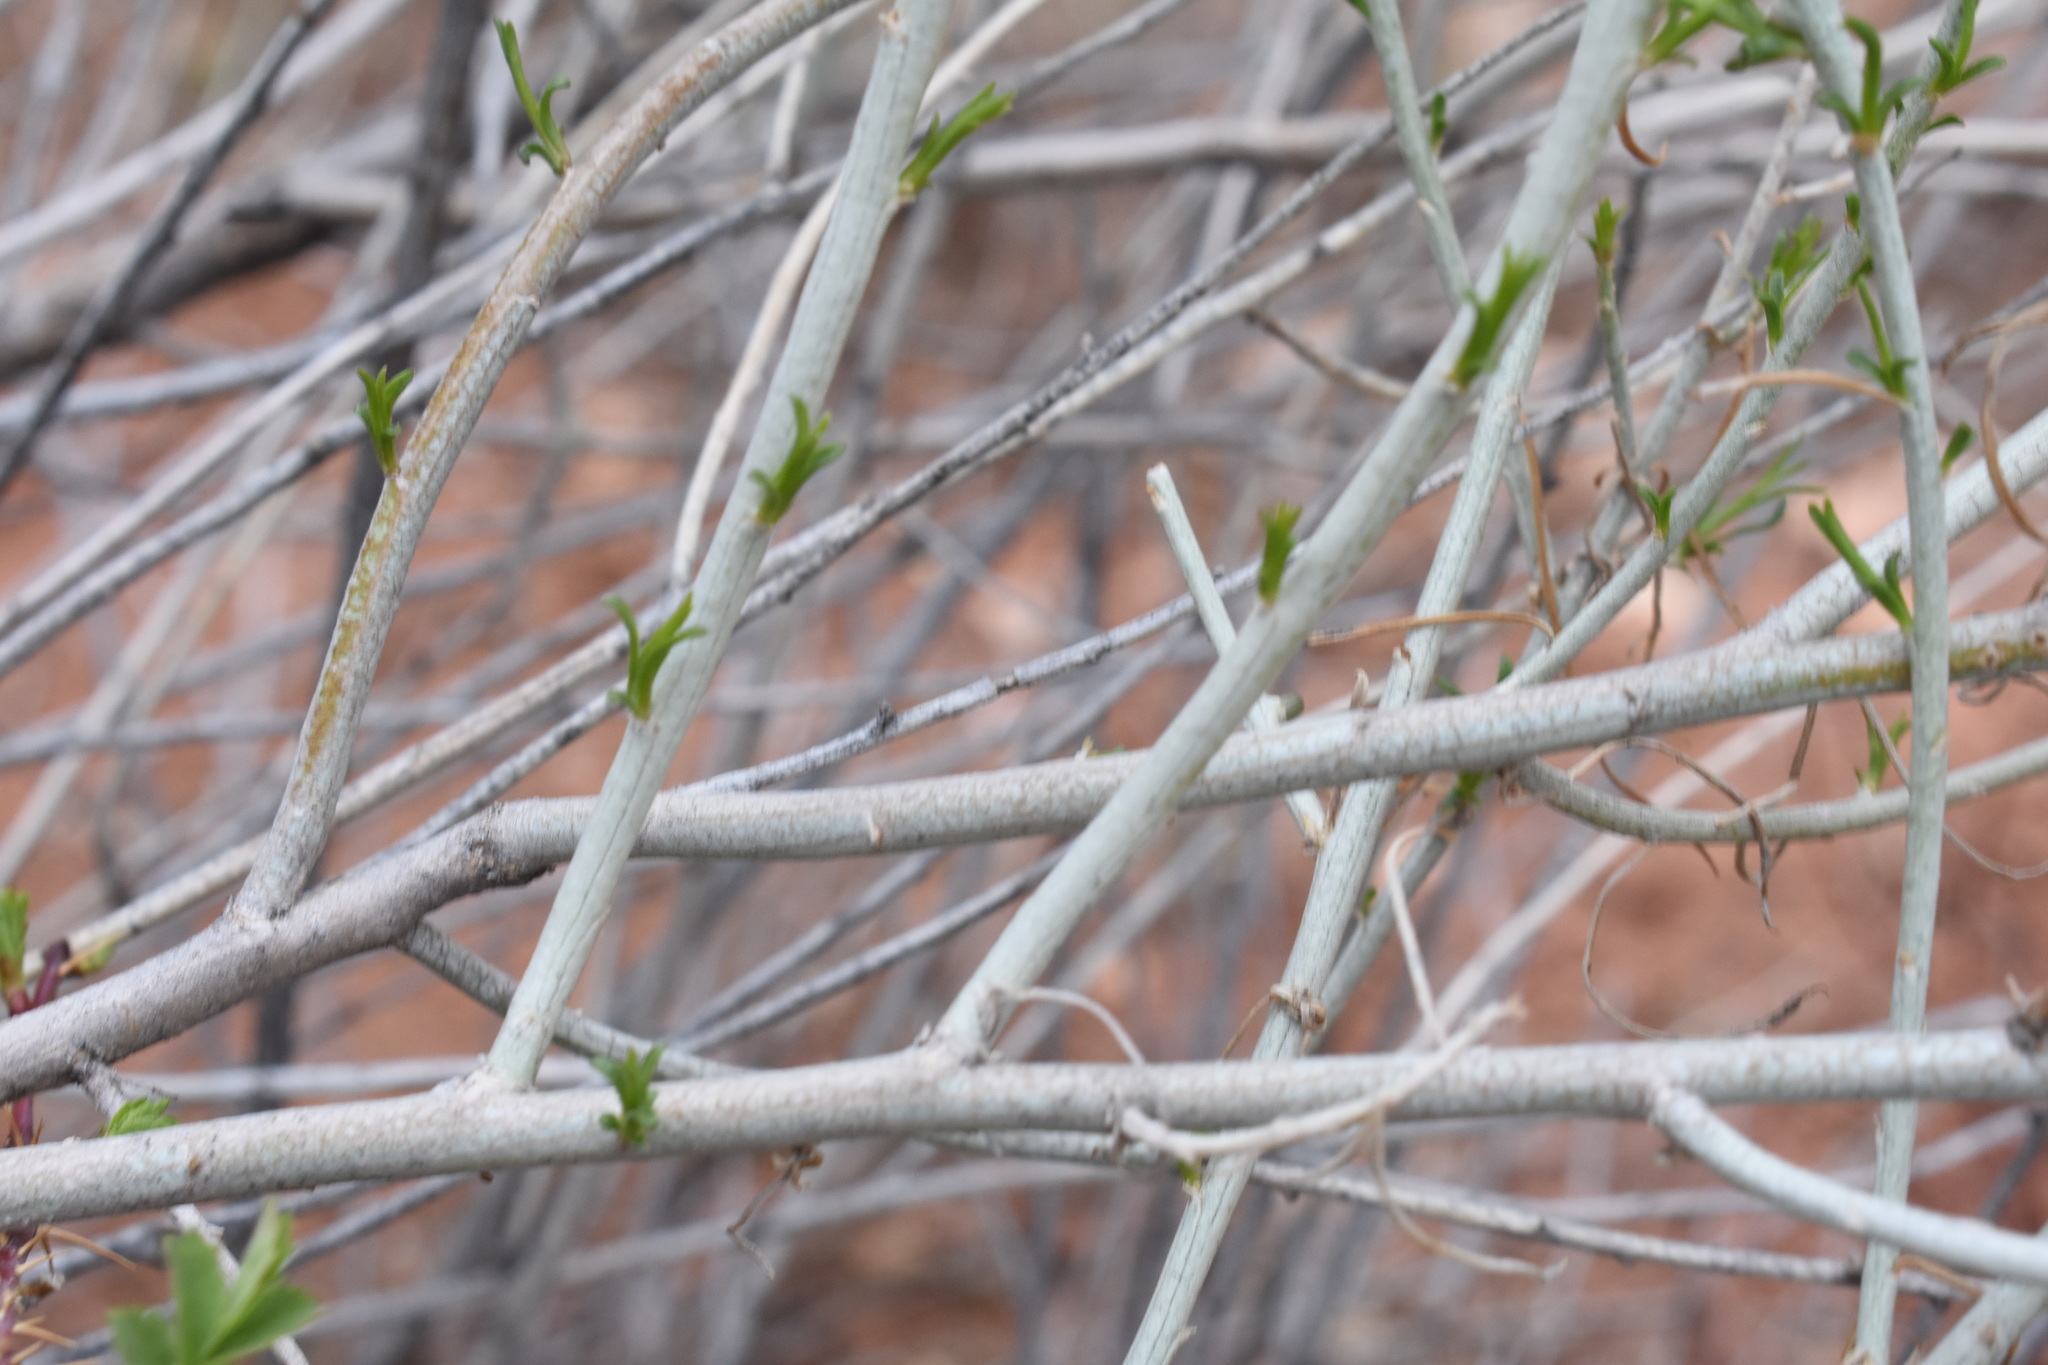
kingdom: Plantae
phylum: Tracheophyta
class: Magnoliopsida
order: Asterales
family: Asteraceae
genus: Ericameria
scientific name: Ericameria nauseosa
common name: Rubber rabbitbrush
